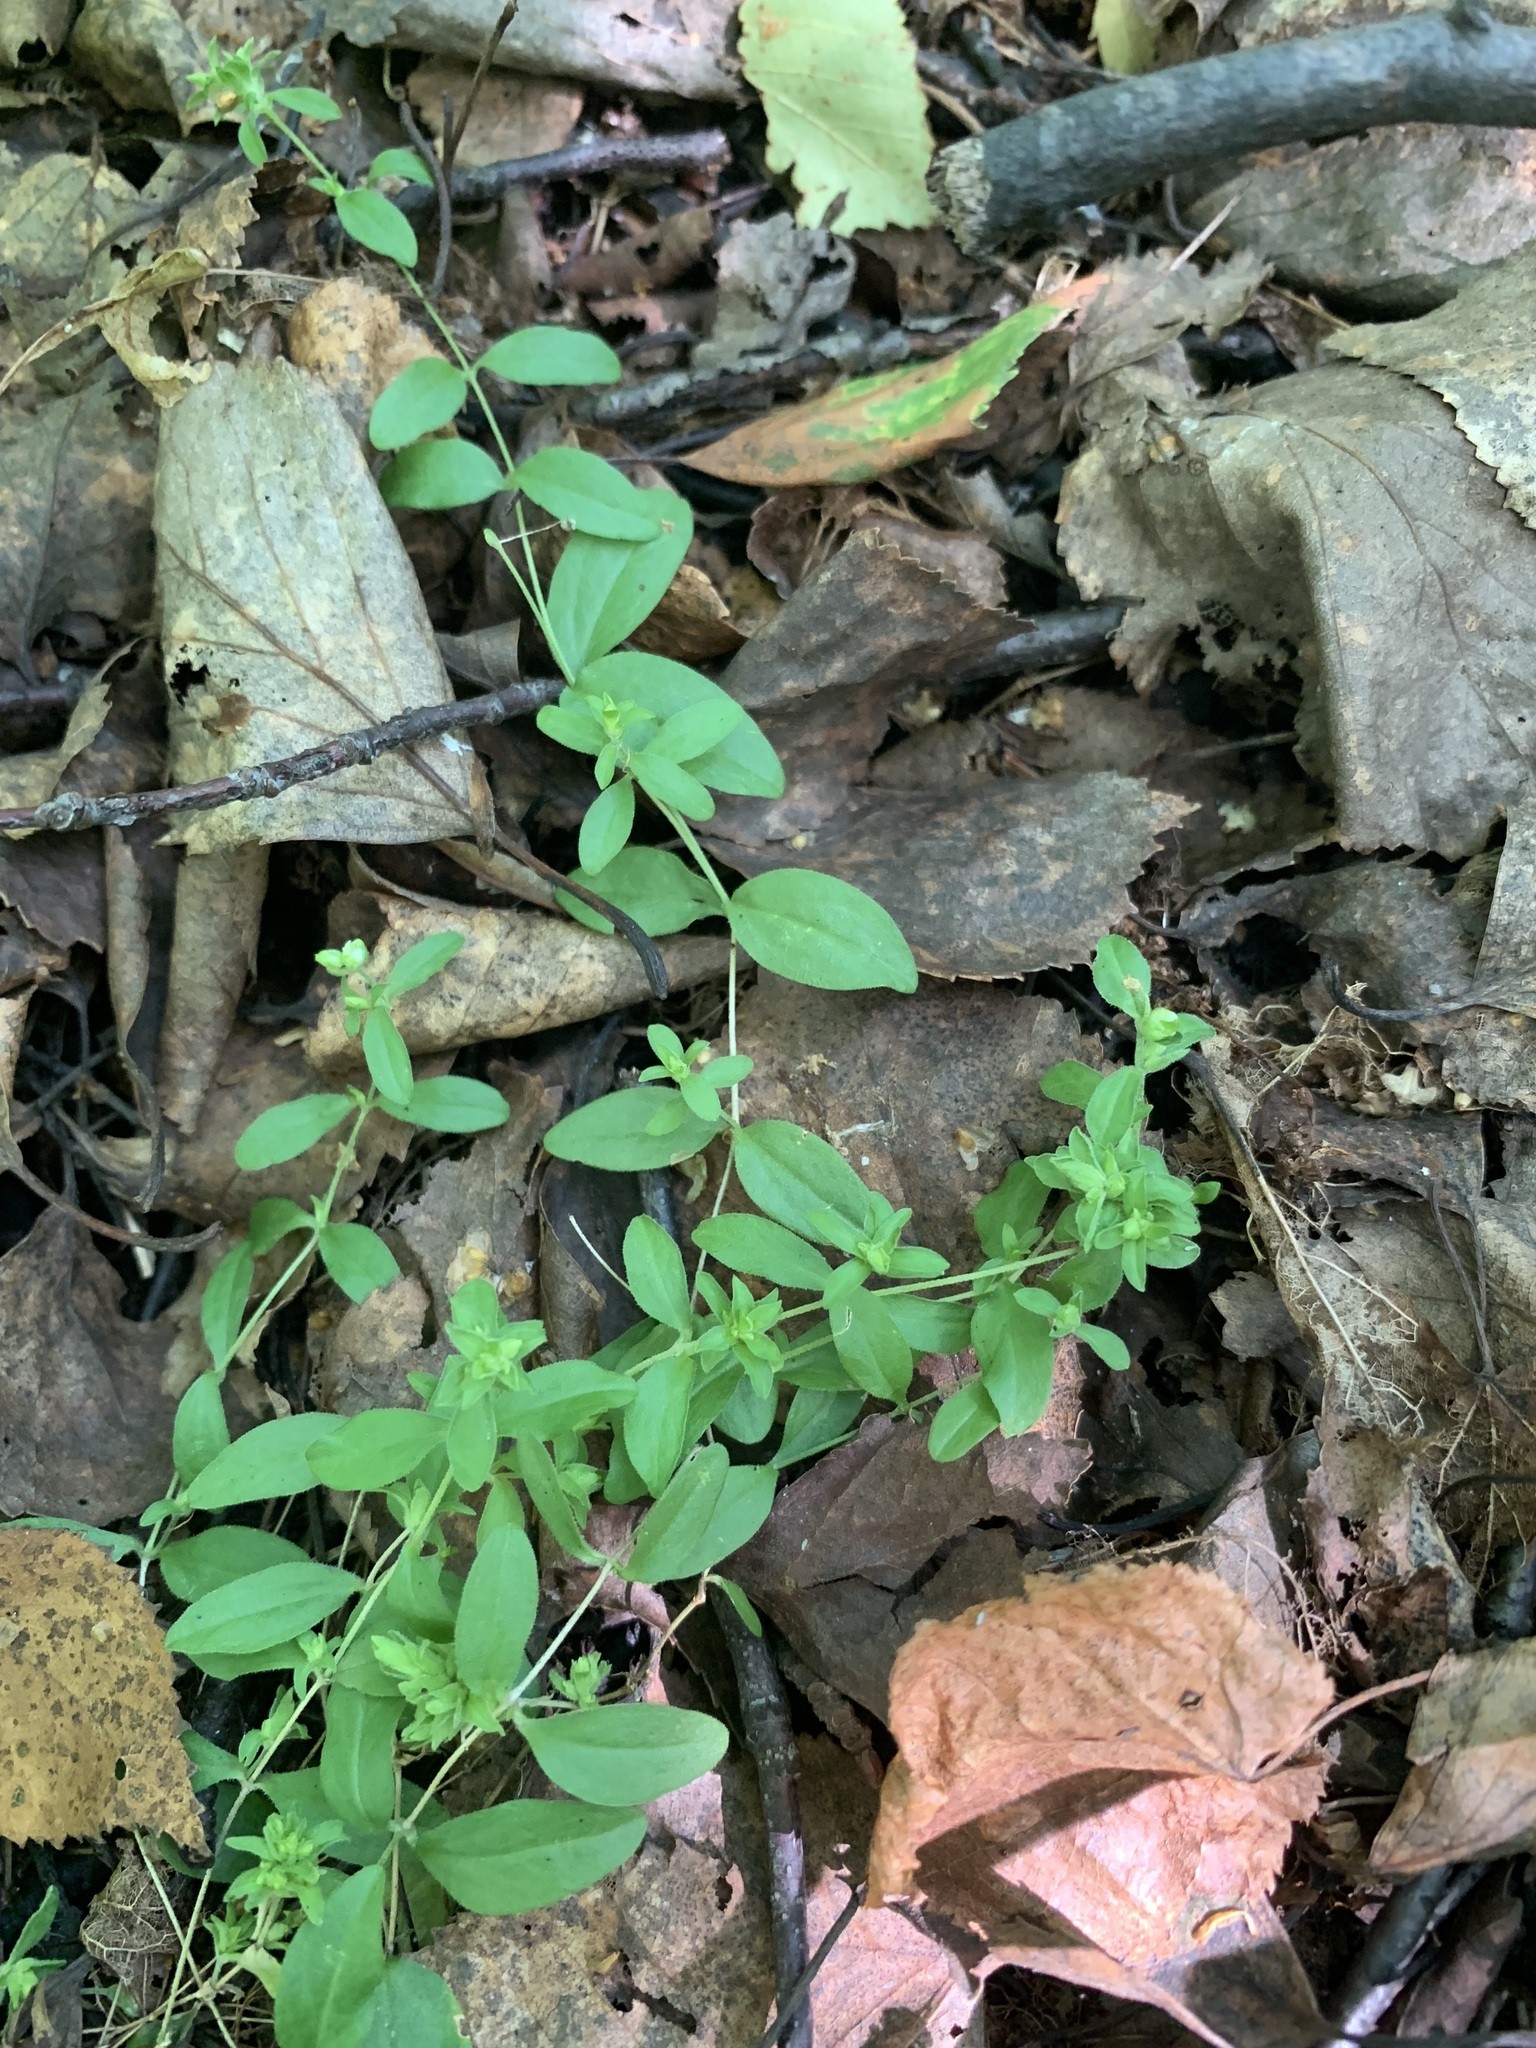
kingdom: Plantae
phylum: Tracheophyta
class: Magnoliopsida
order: Caryophyllales
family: Caryophyllaceae
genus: Moehringia
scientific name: Moehringia lateriflora
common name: Blunt-leaved sandwort
